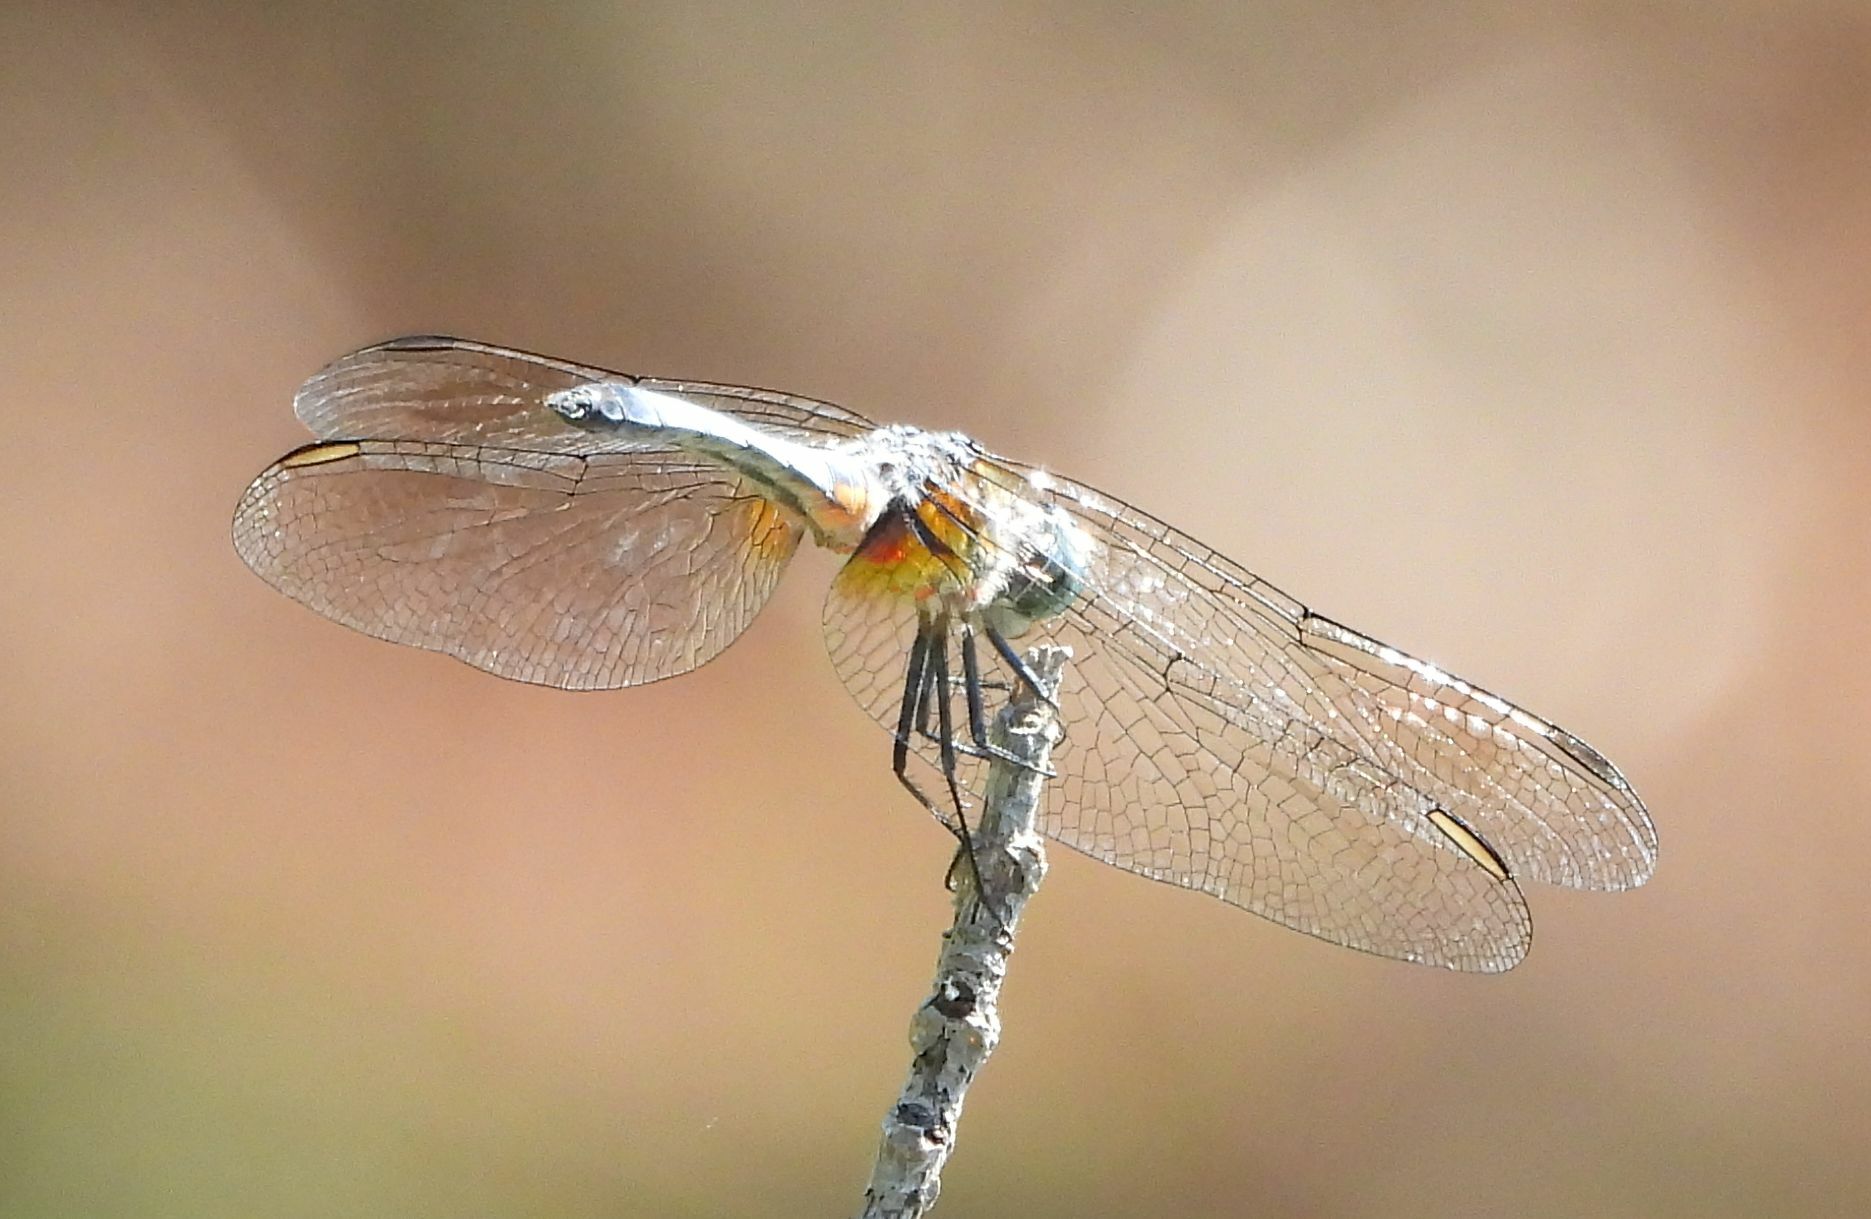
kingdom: Animalia
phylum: Arthropoda
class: Insecta
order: Odonata
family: Libellulidae
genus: Pachydiplax
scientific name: Pachydiplax longipennis
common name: Blue dasher
